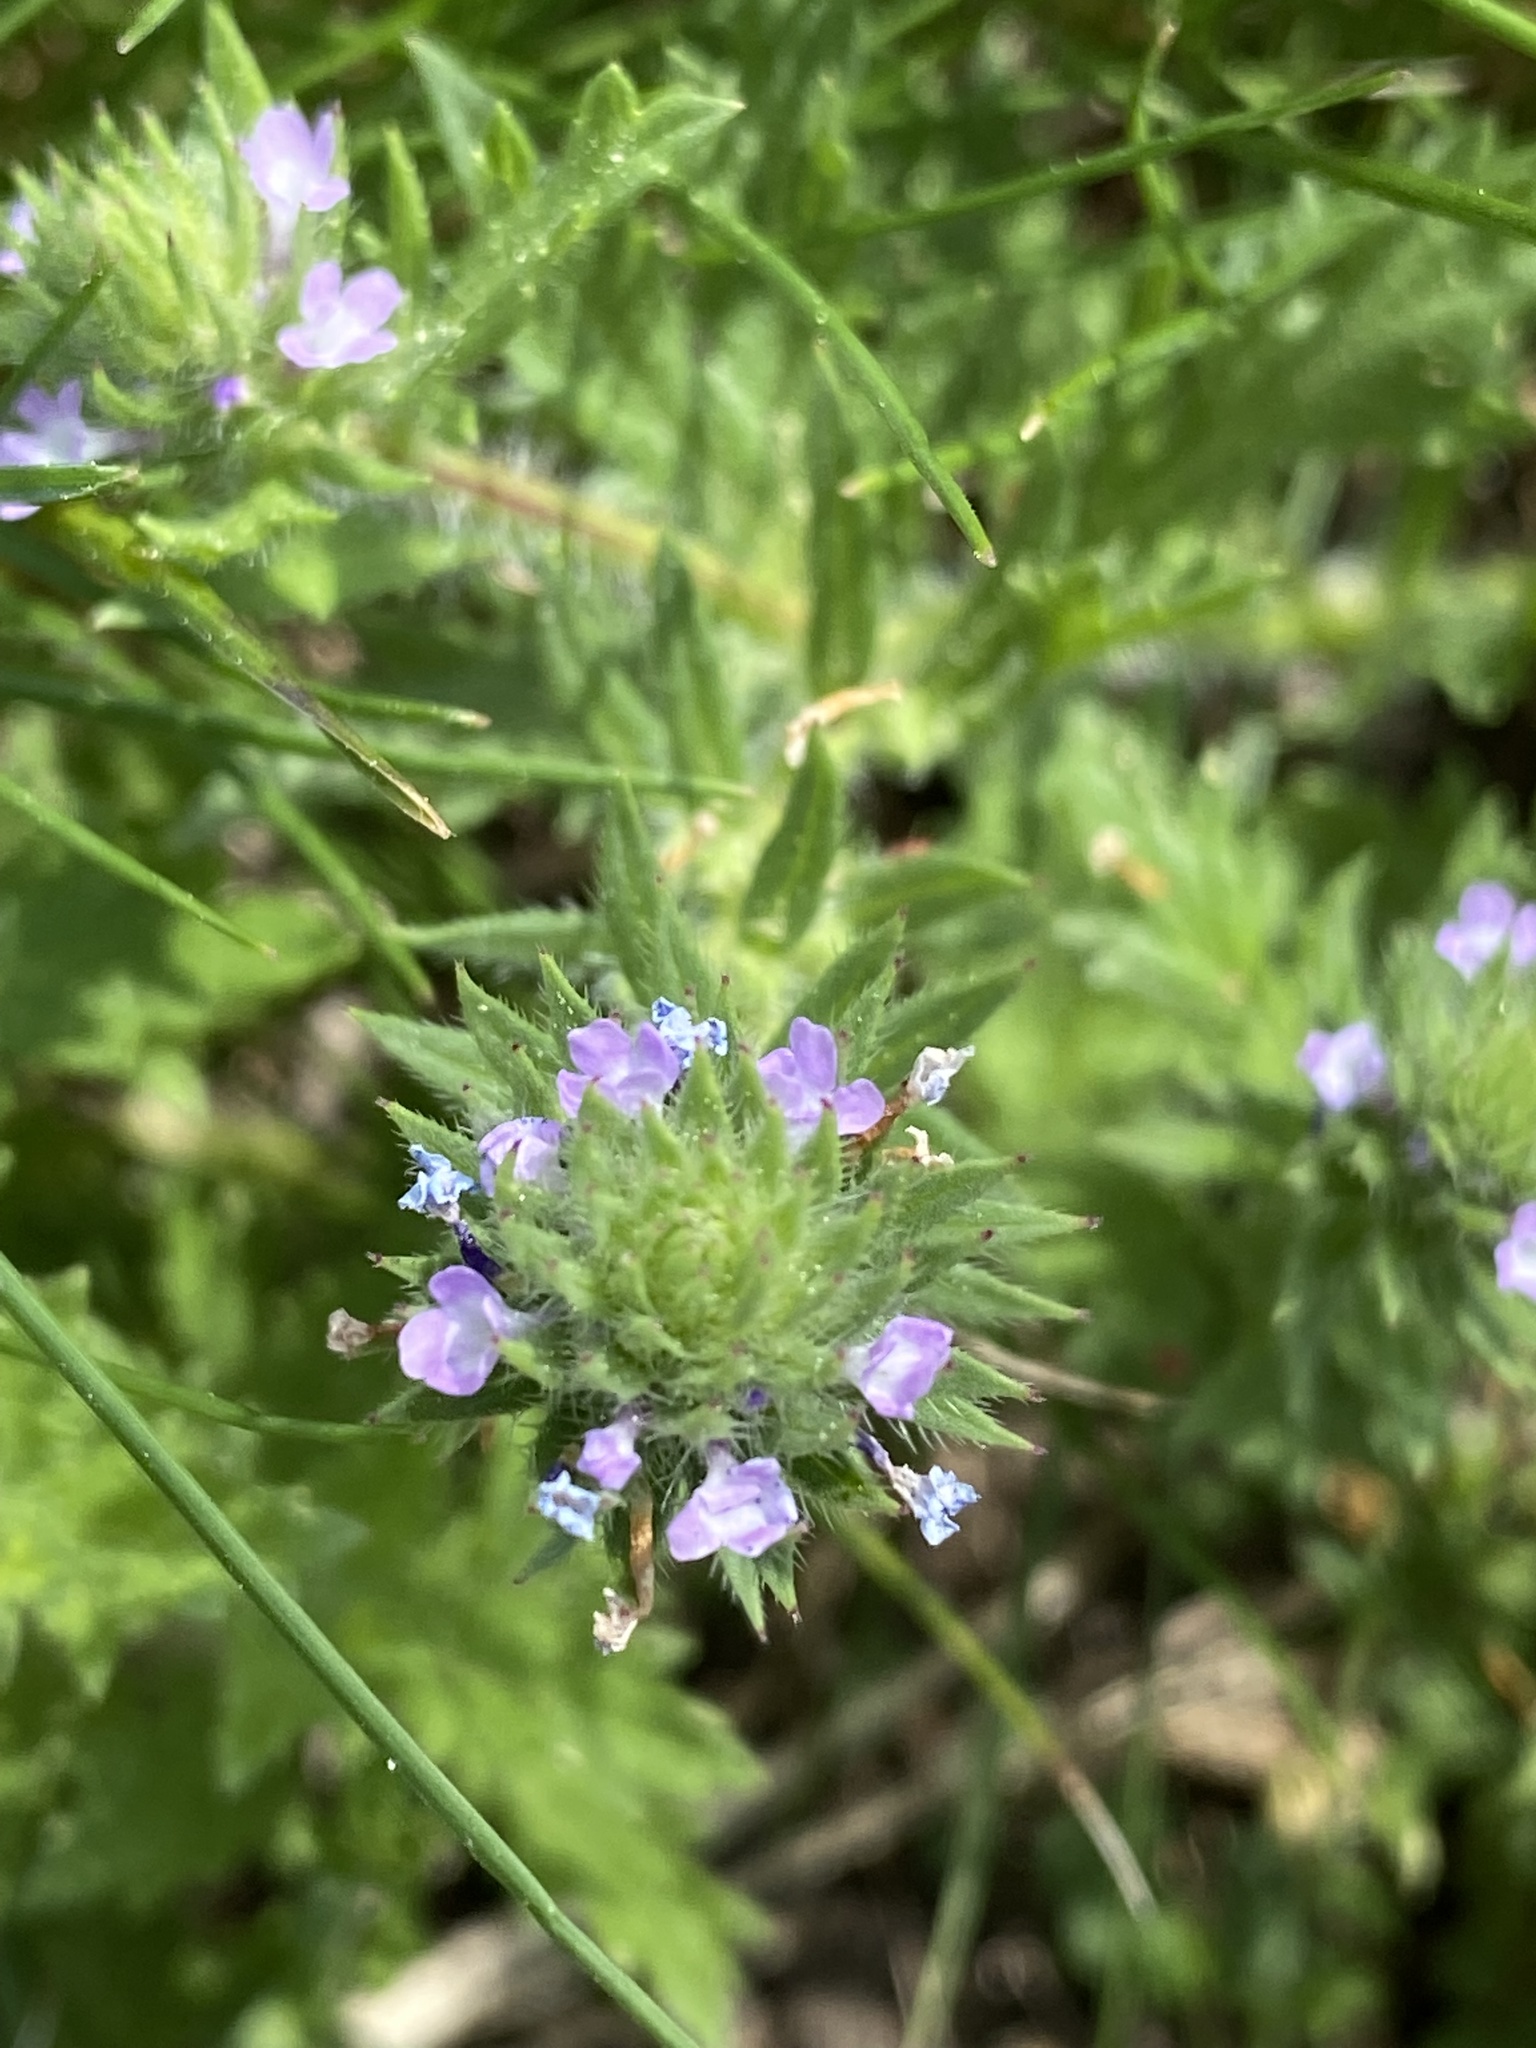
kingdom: Plantae
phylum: Tracheophyta
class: Magnoliopsida
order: Lamiales
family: Verbenaceae
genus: Verbena
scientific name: Verbena bracteata
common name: Bracted vervain
